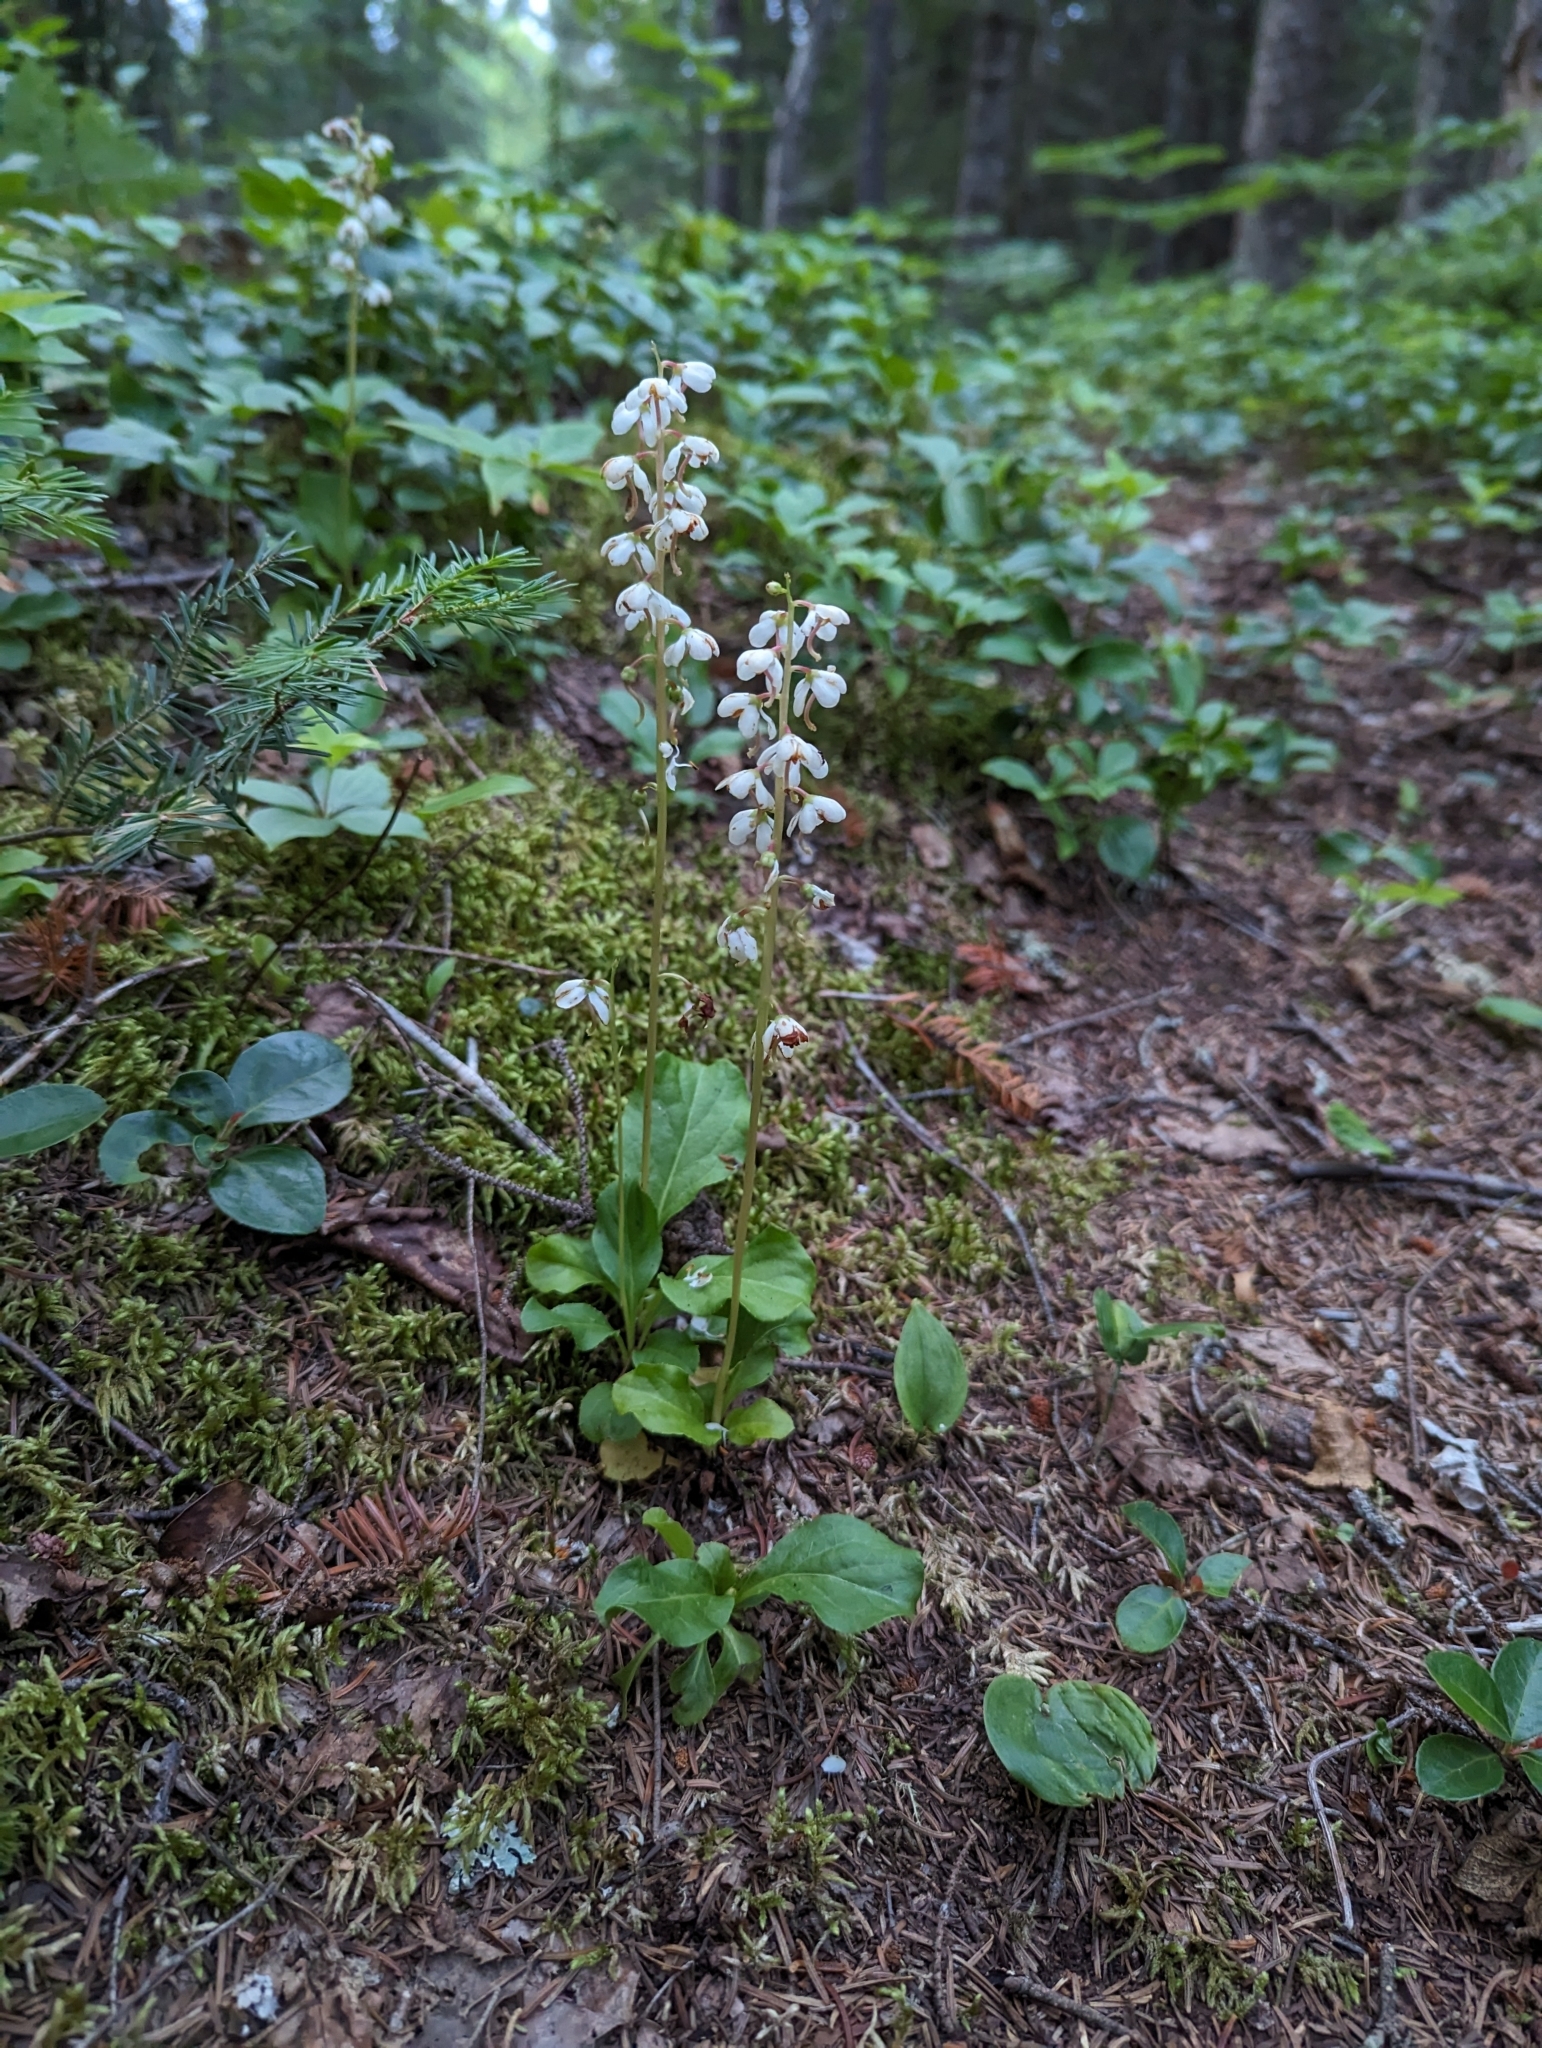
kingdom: Plantae
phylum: Tracheophyta
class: Magnoliopsida
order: Ericales
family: Ericaceae
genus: Pyrola
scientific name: Pyrola elliptica
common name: Shinleaf
